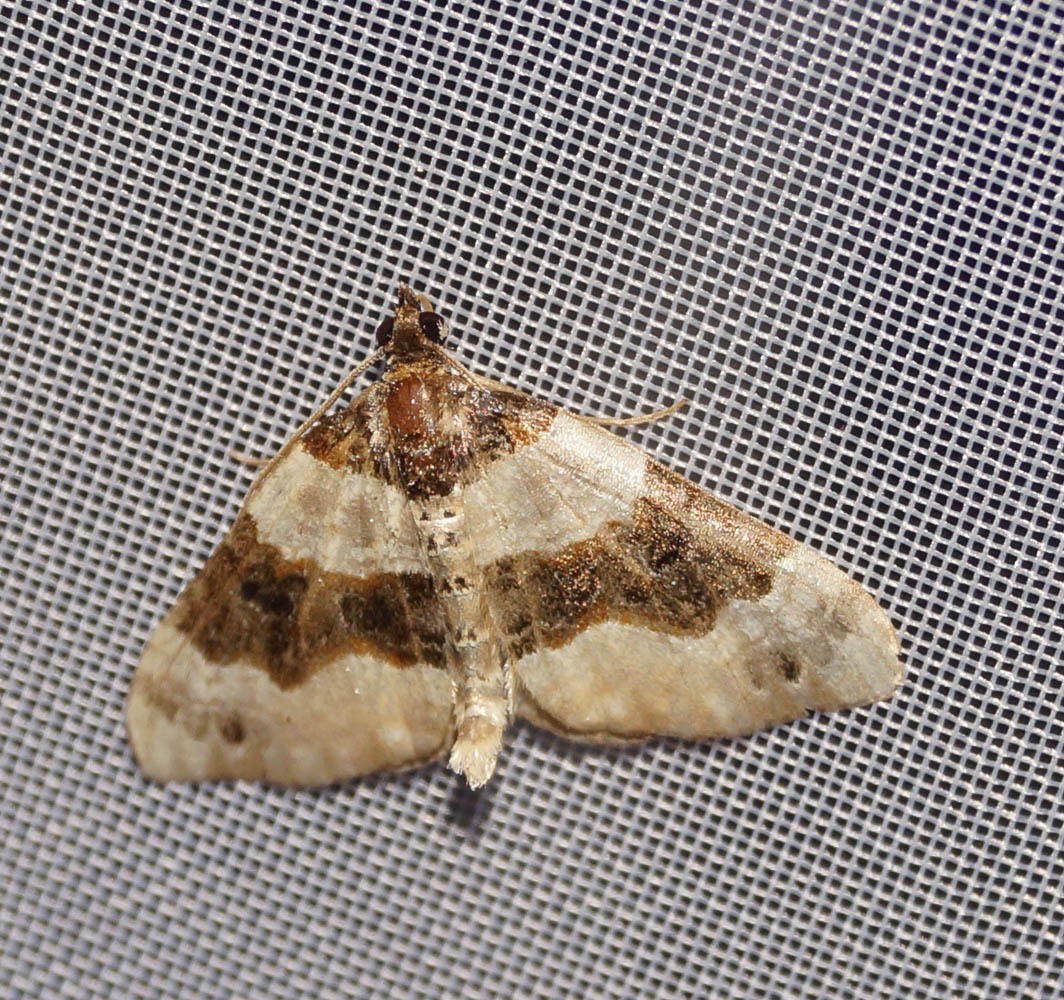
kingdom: Animalia
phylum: Arthropoda
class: Insecta
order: Lepidoptera
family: Geometridae
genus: Cosmorhoe
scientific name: Cosmorhoe ocellata
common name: Purple bar
